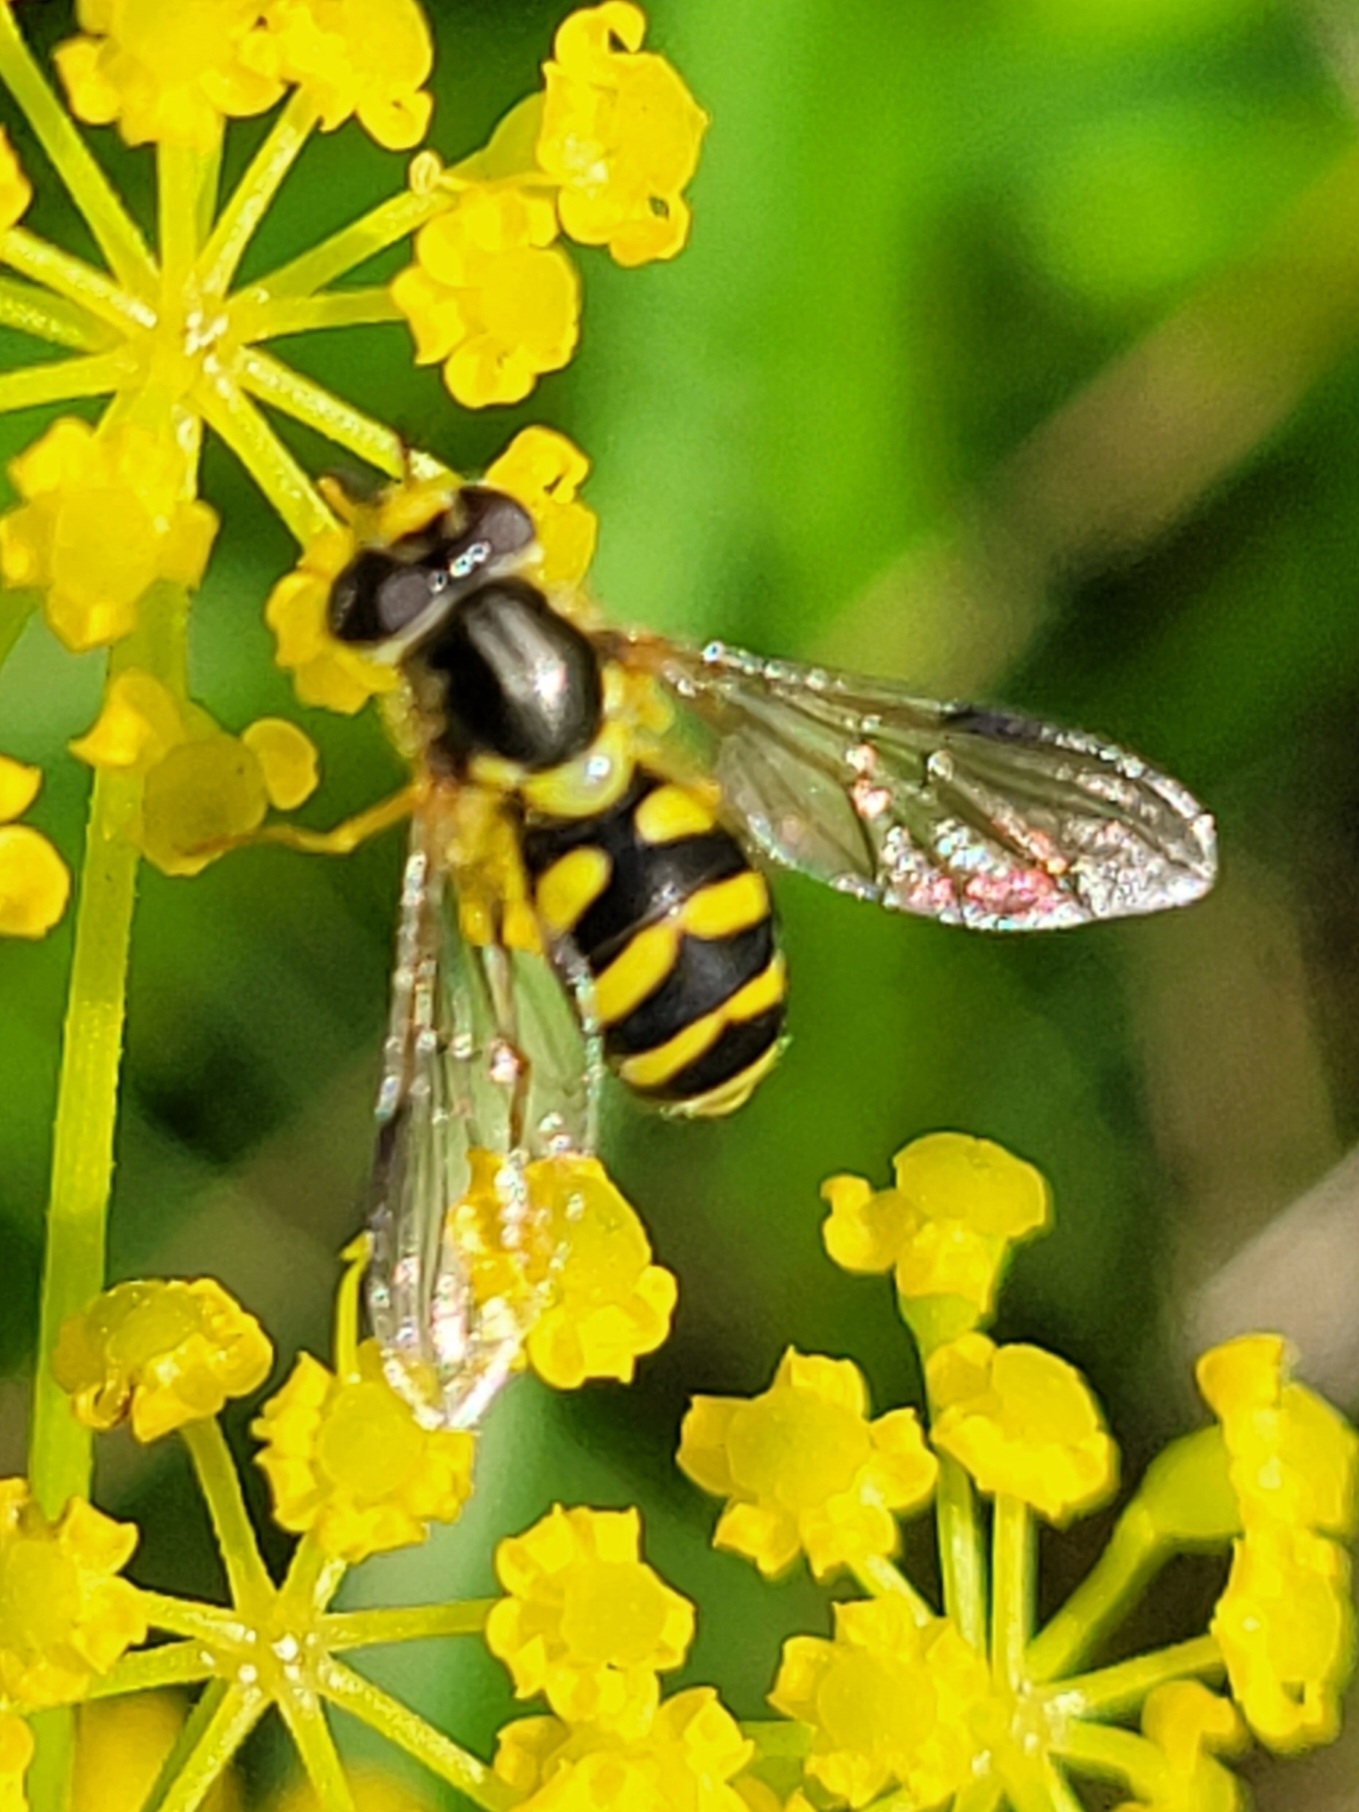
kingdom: Animalia
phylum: Arthropoda
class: Insecta
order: Diptera
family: Syrphidae
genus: Dasysyrphus
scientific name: Dasysyrphus albostriatus
